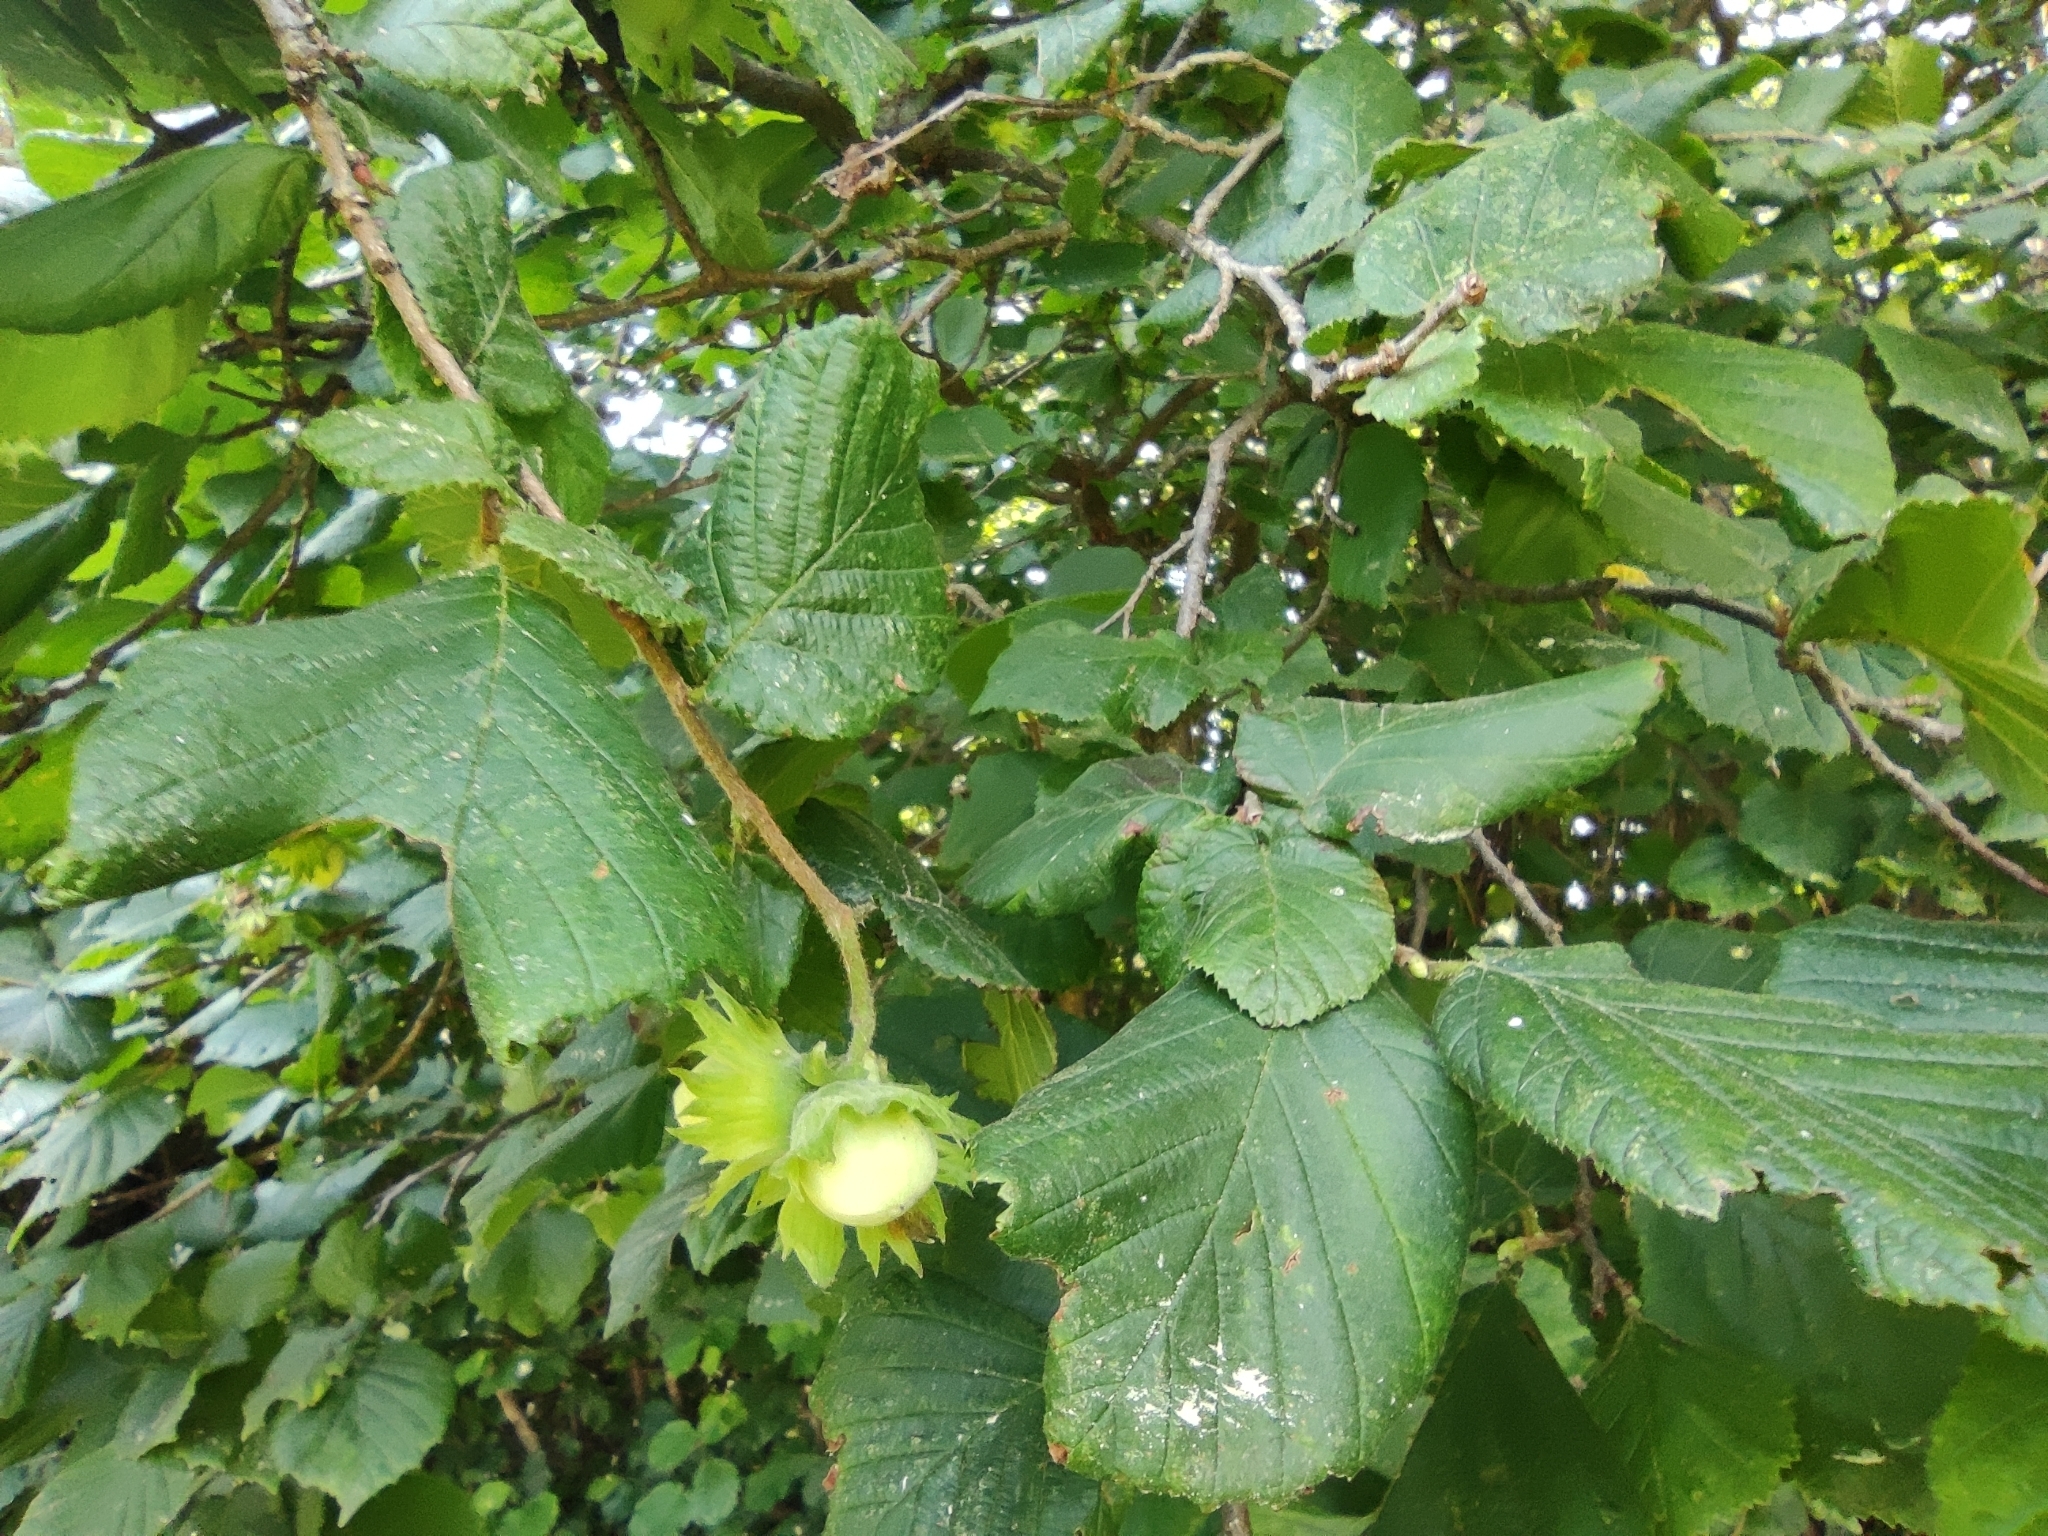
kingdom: Plantae
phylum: Tracheophyta
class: Magnoliopsida
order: Fagales
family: Betulaceae
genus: Corylus
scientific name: Corylus avellana
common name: European hazel
